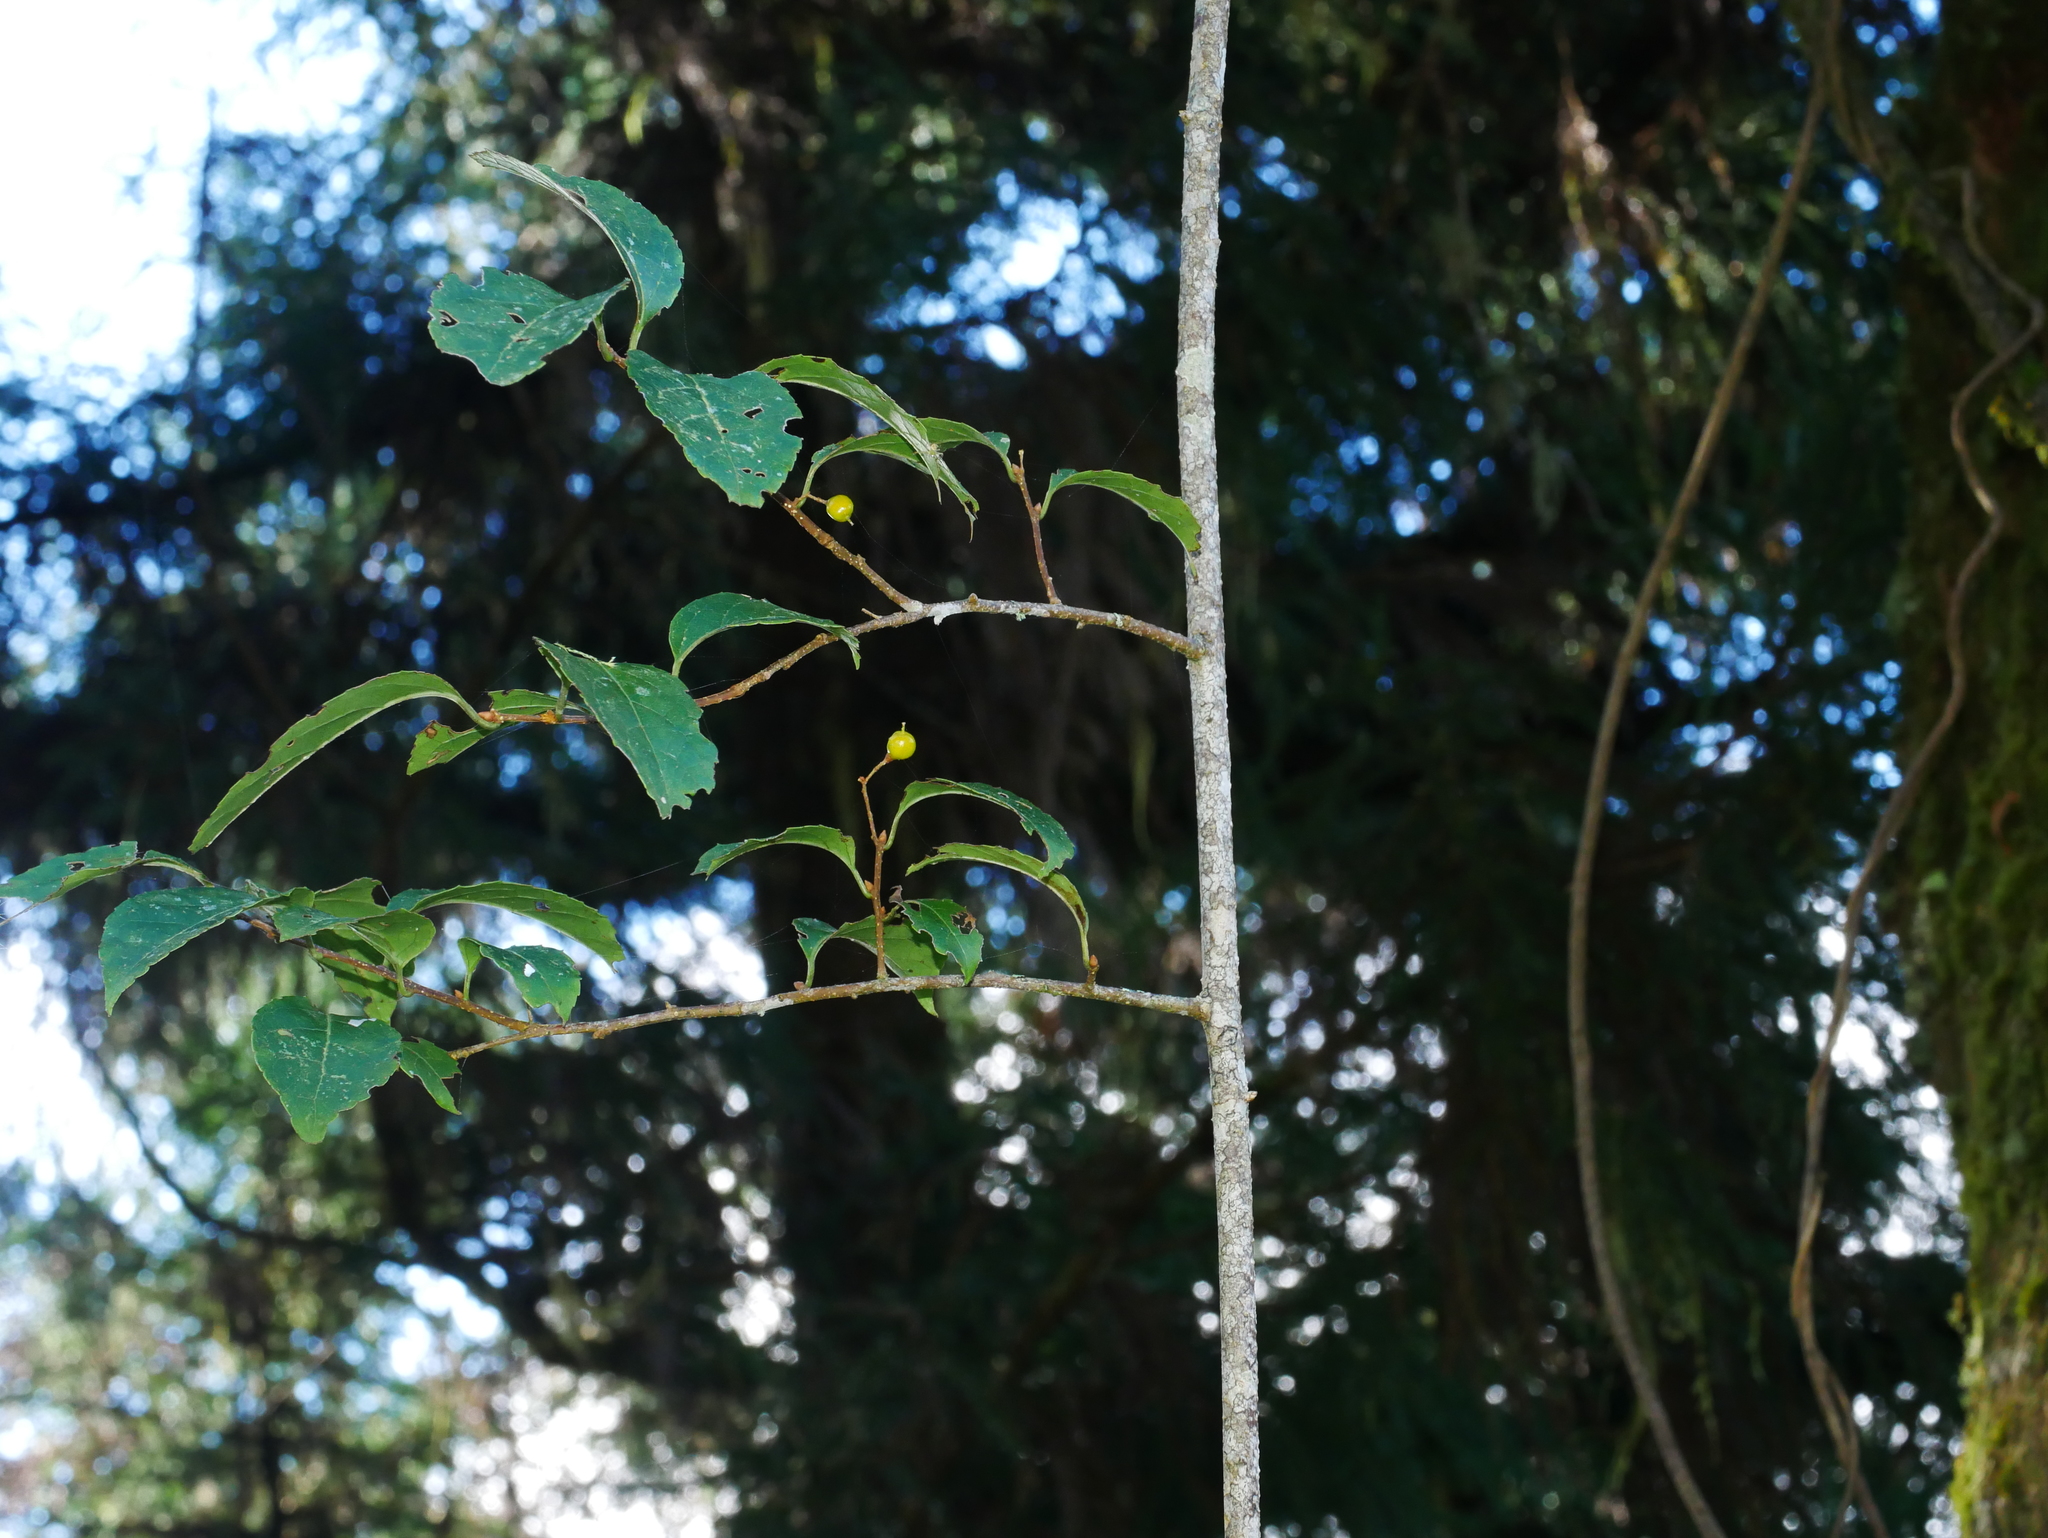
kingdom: Plantae
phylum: Tracheophyta
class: Magnoliopsida
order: Celastrales
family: Celastraceae
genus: Celastrus
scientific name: Celastrus punctatus
